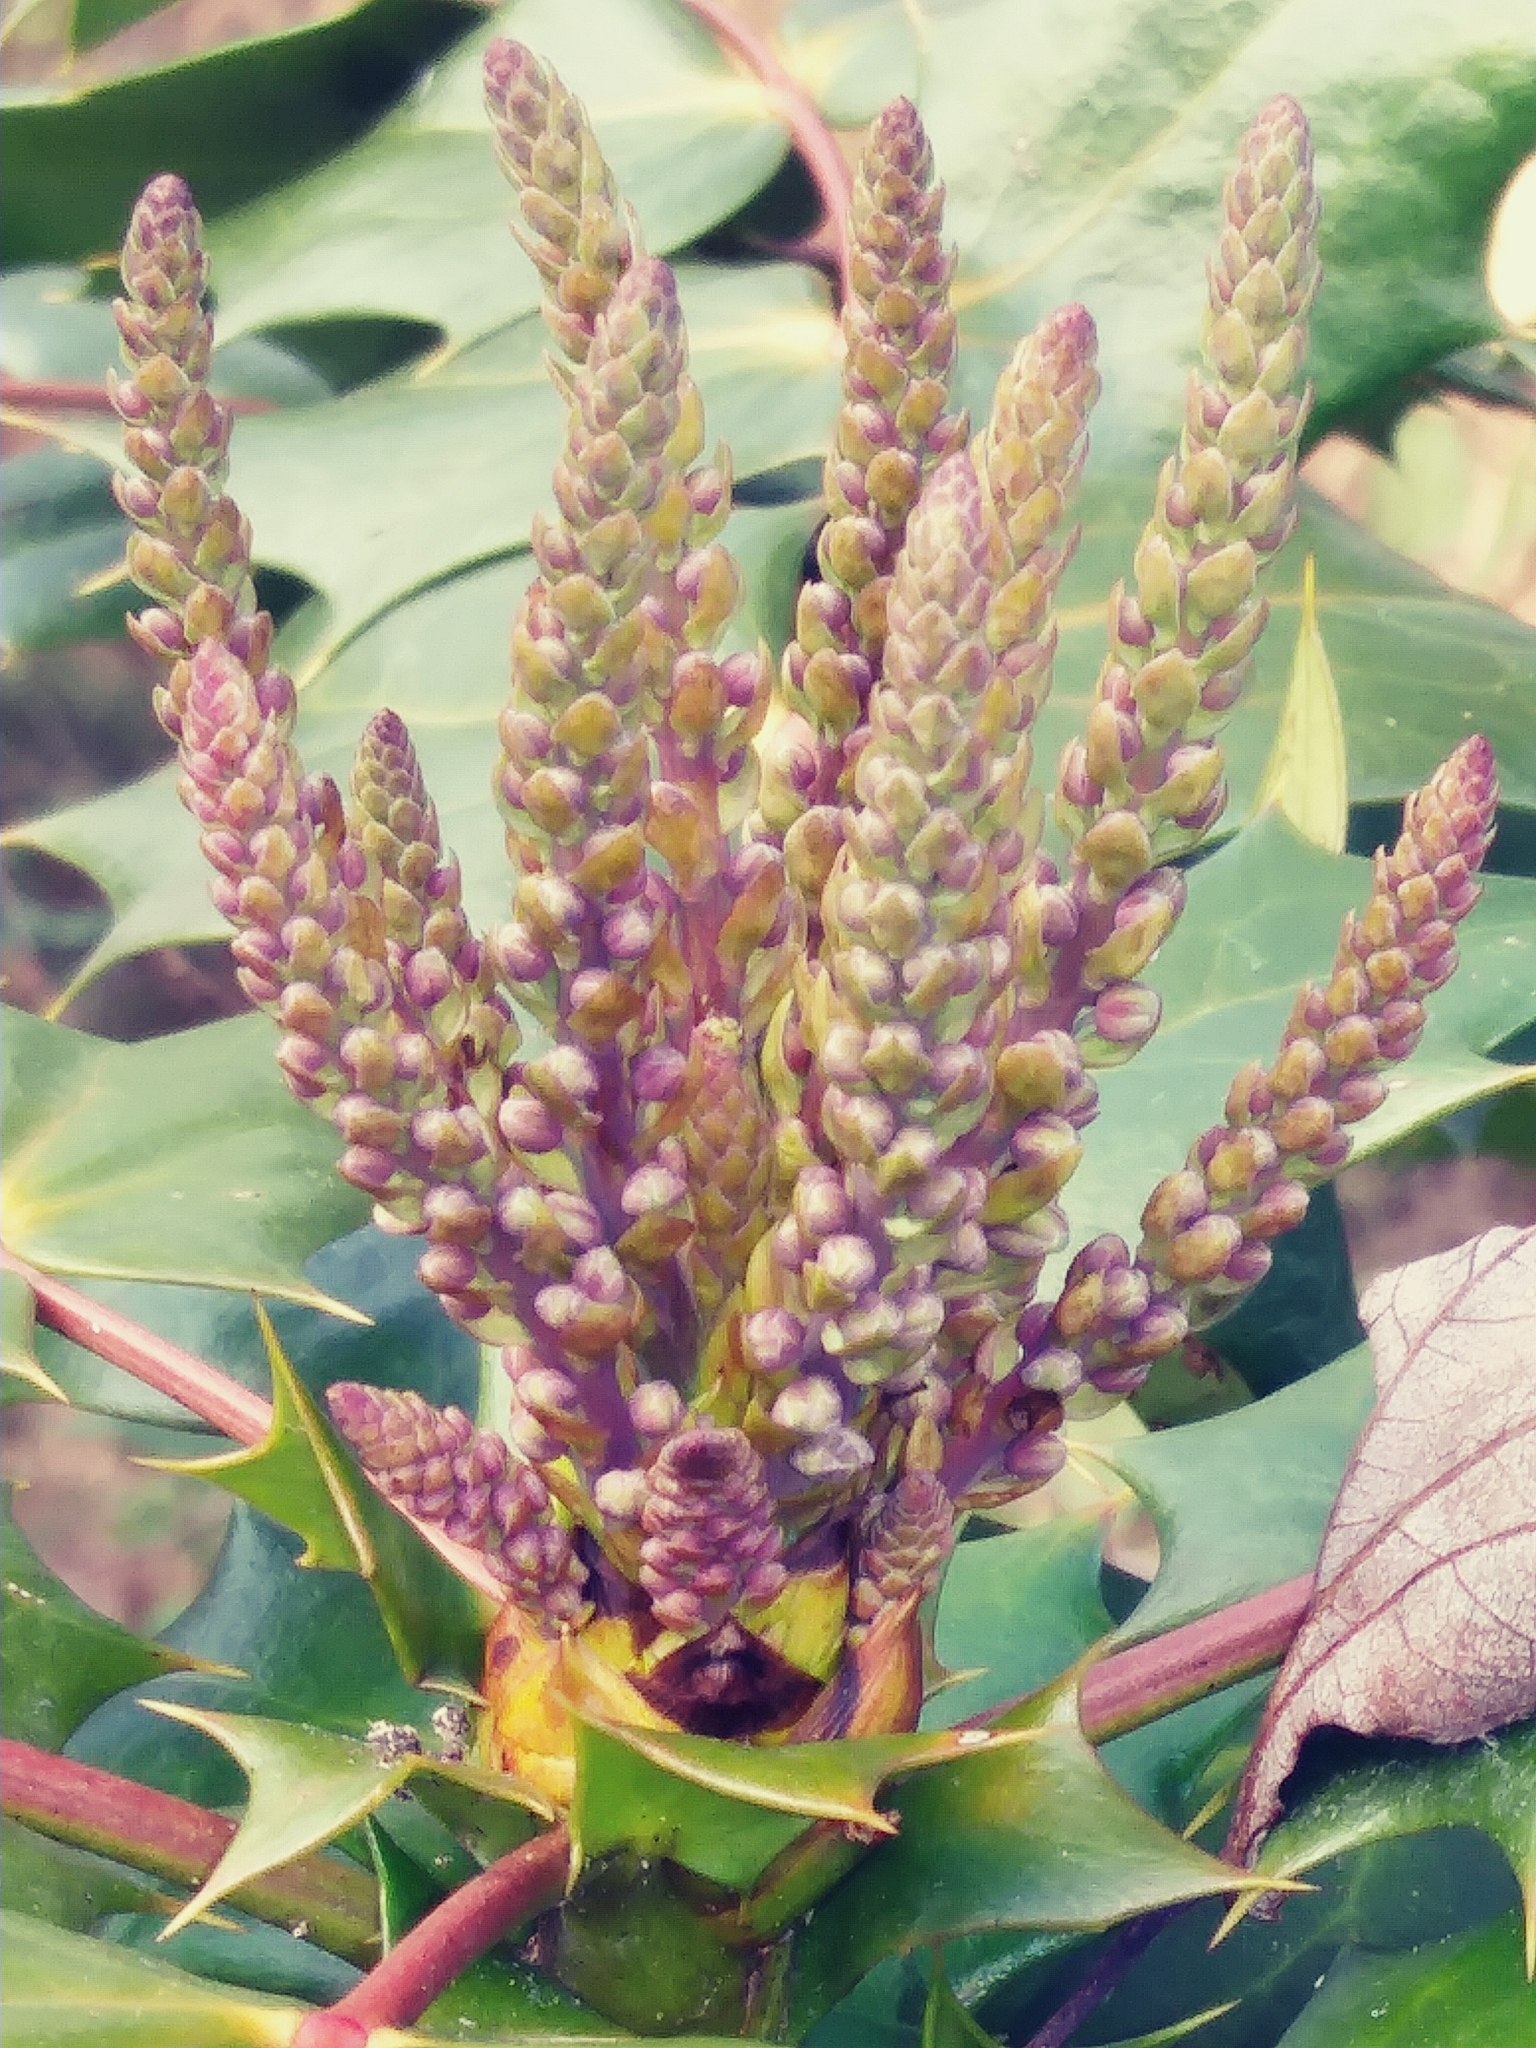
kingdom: Plantae
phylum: Tracheophyta
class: Magnoliopsida
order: Ranunculales
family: Berberidaceae
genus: Mahonia
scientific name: Mahonia bealei
